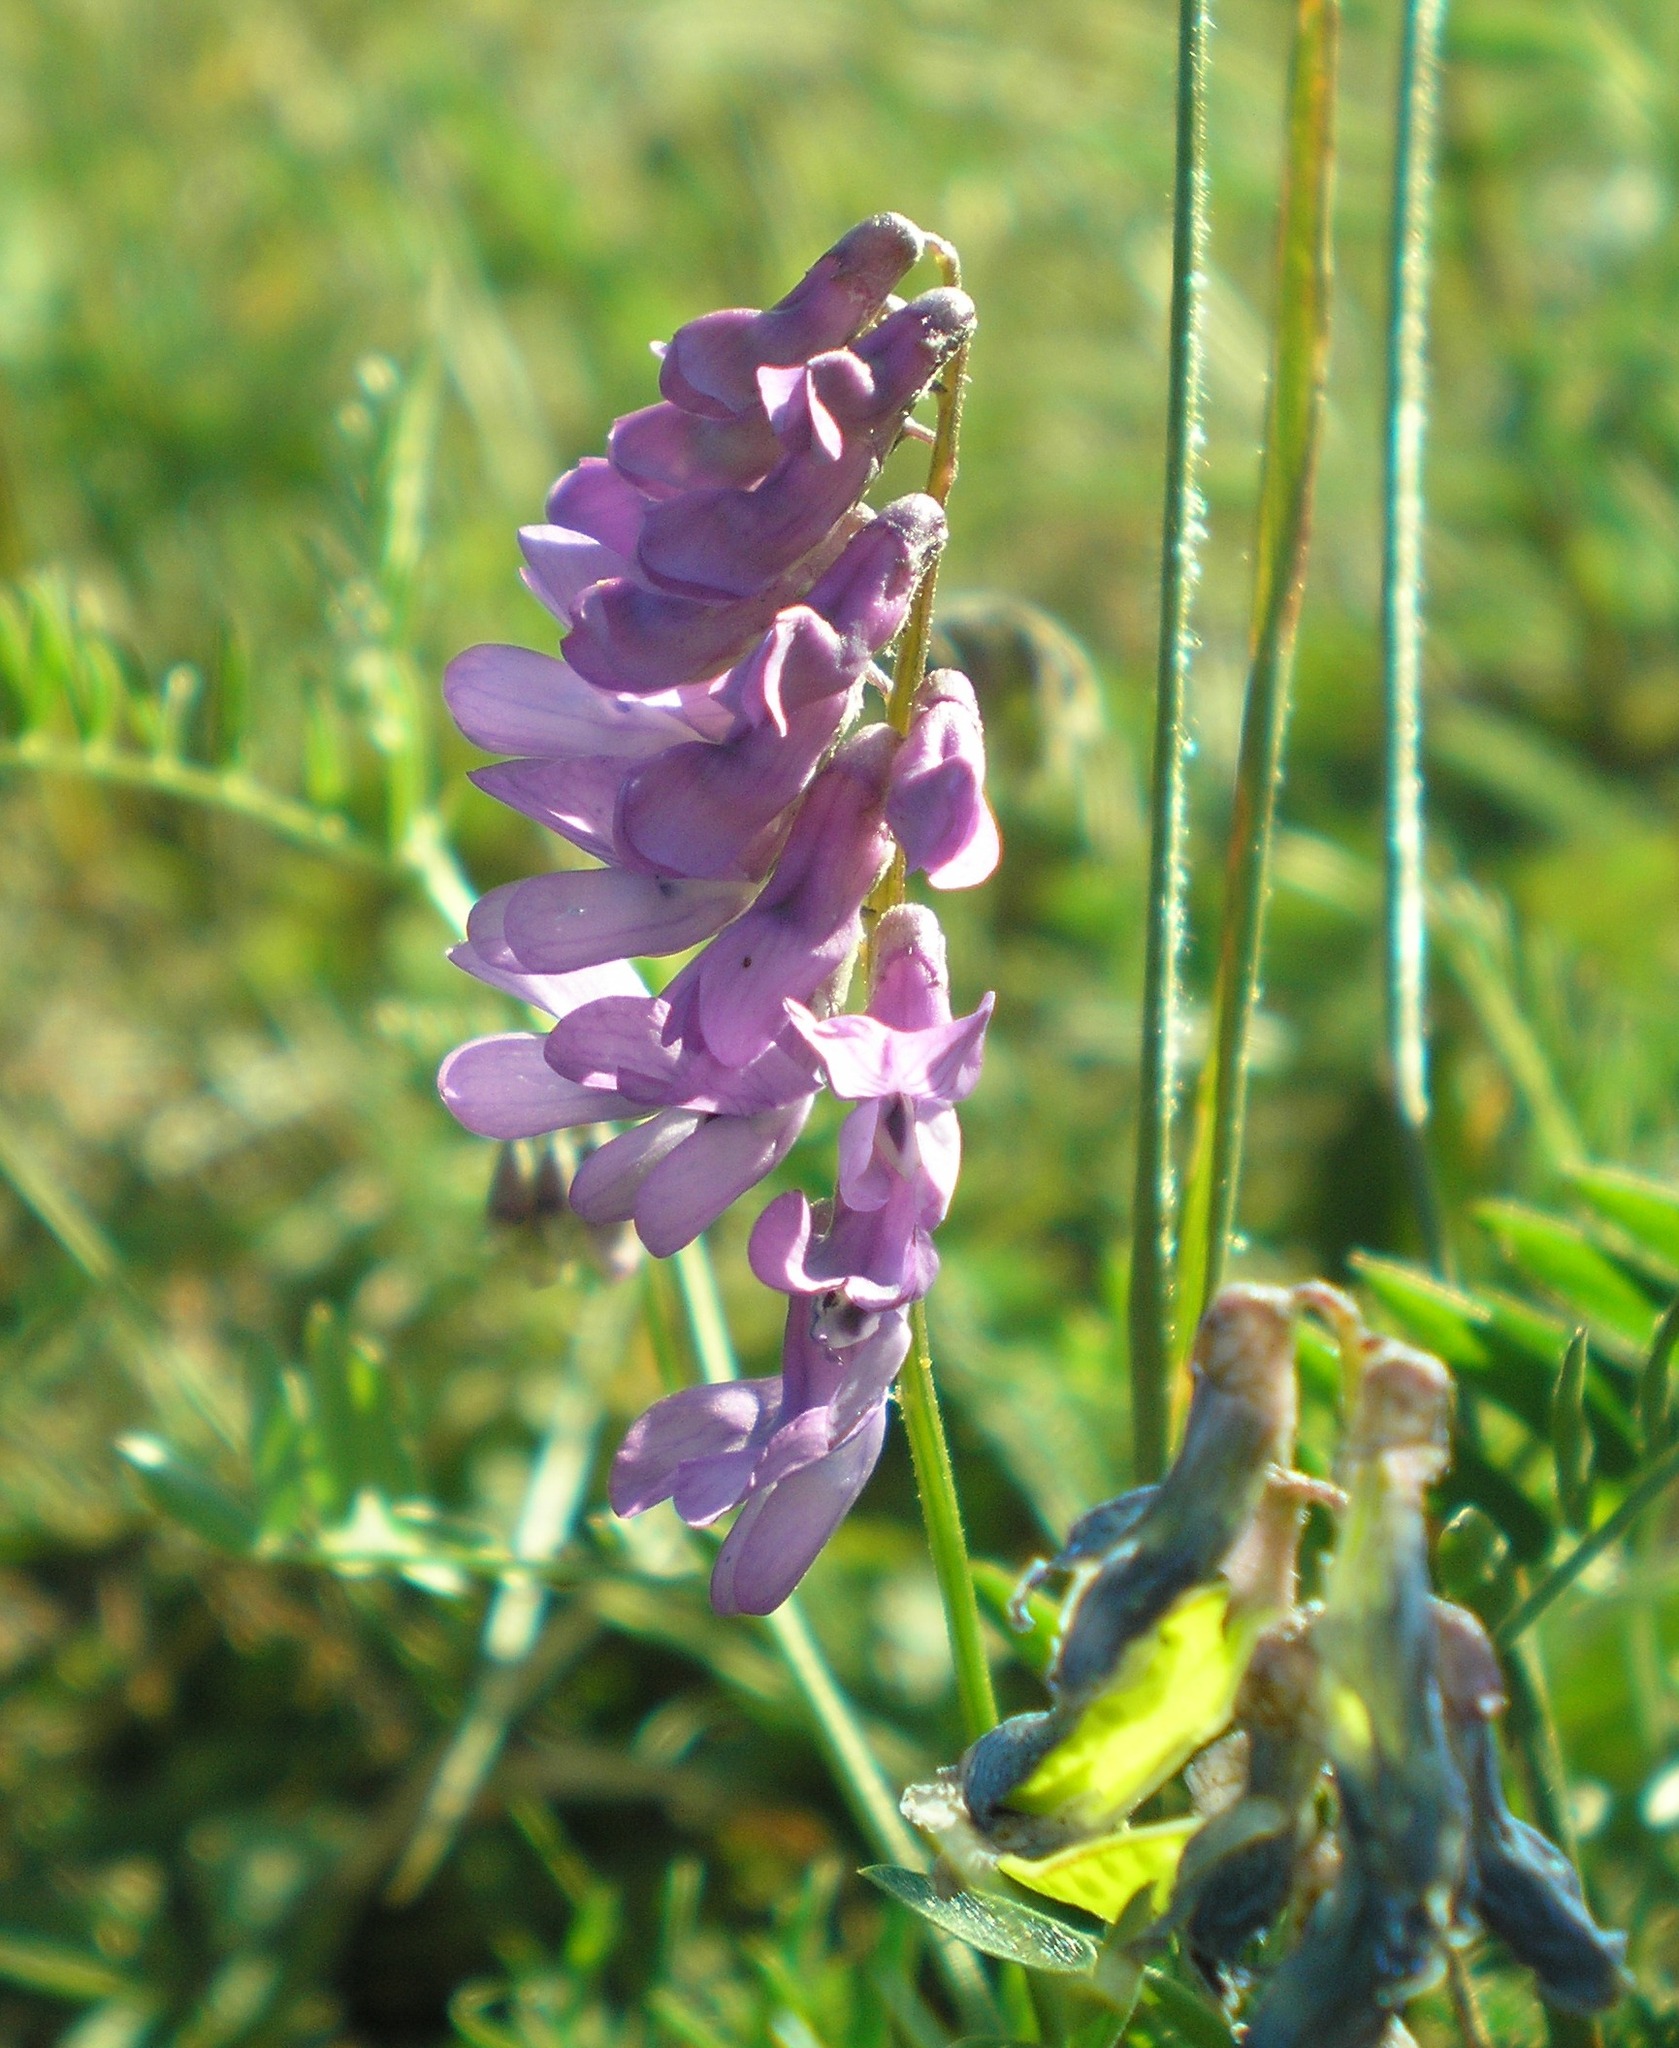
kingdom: Plantae
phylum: Tracheophyta
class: Magnoliopsida
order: Fabales
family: Fabaceae
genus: Vicia
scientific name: Vicia cracca
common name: Bird vetch
